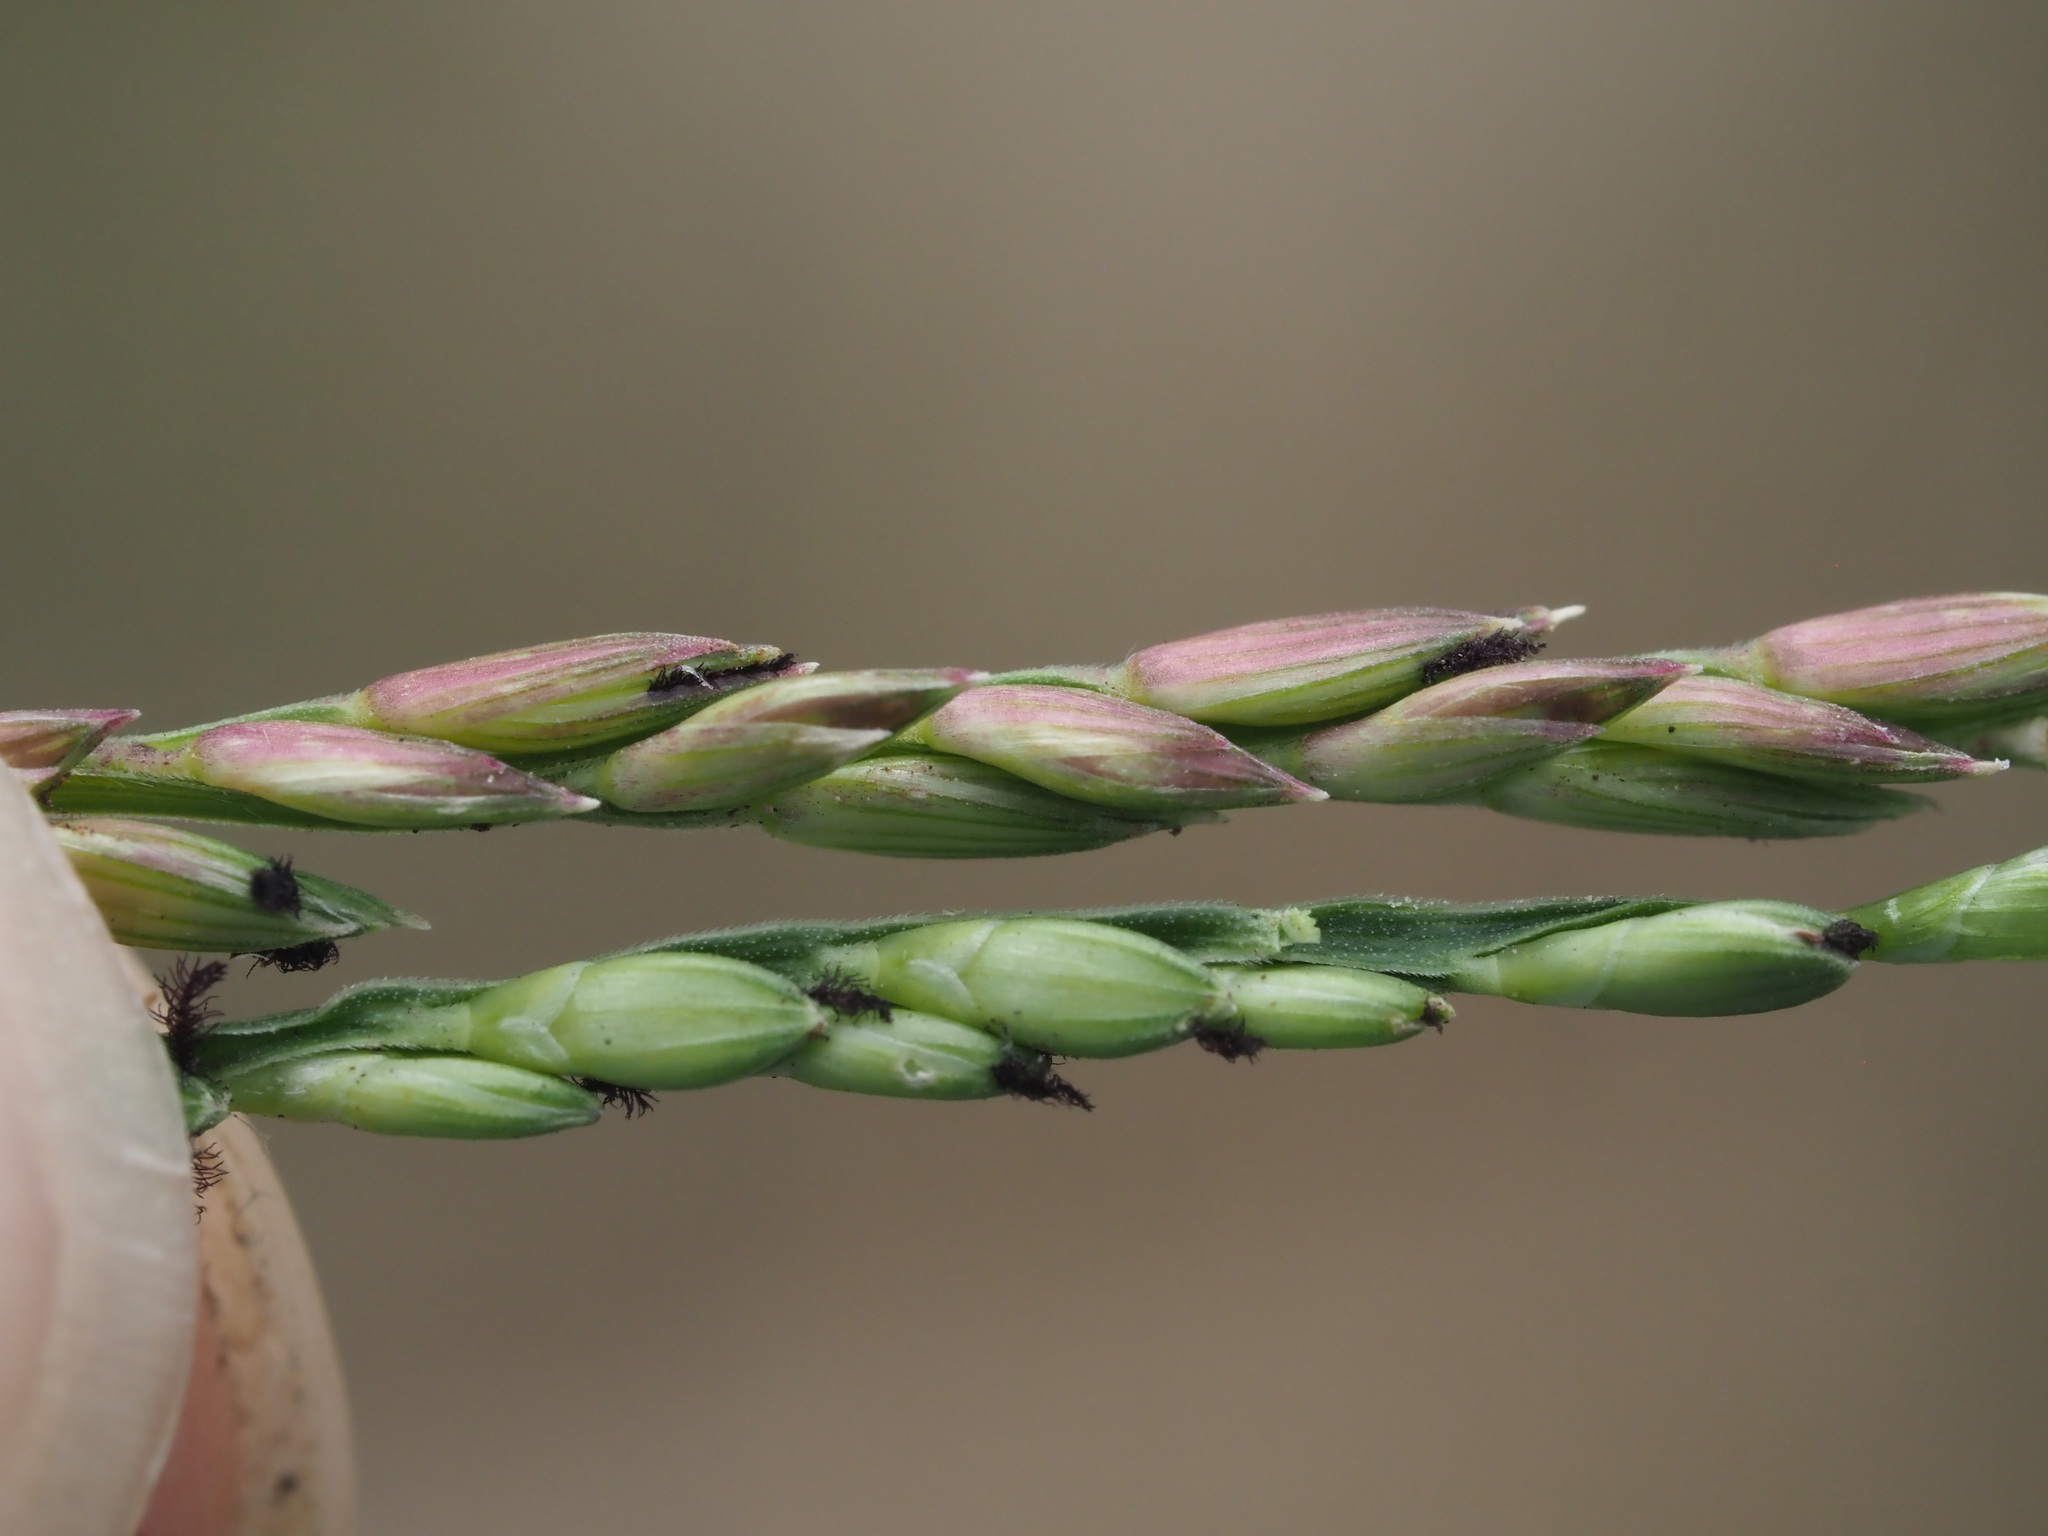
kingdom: Plantae
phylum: Tracheophyta
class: Liliopsida
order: Poales
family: Poaceae
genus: Urochloa
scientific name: Urochloa
